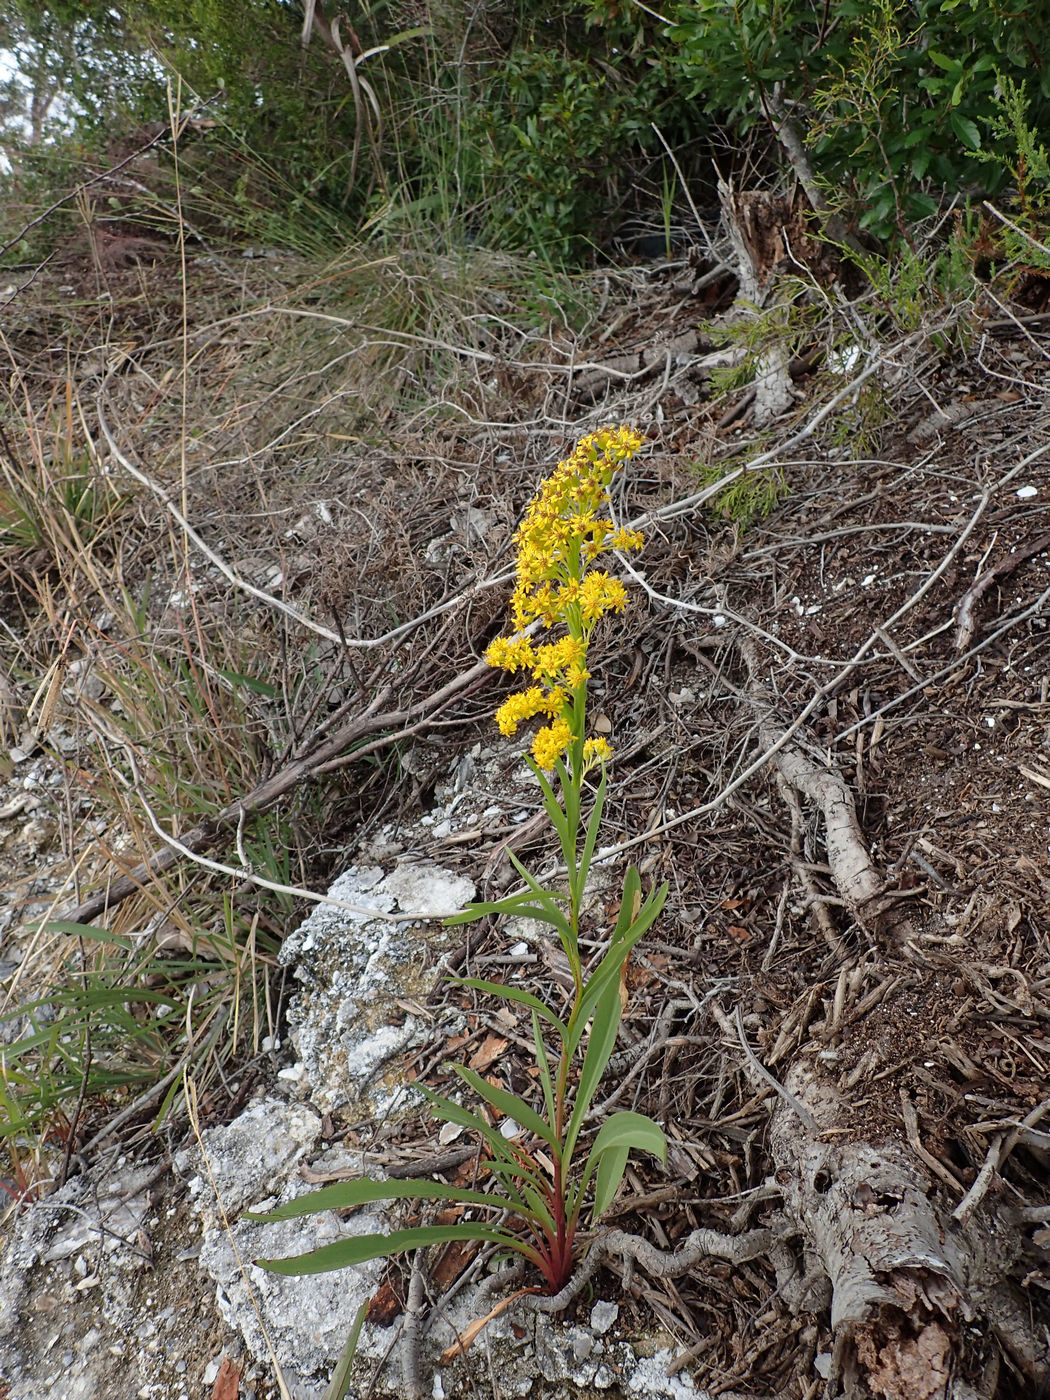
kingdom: Plantae
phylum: Tracheophyta
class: Magnoliopsida
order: Asterales
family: Asteraceae
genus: Solidago
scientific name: Solidago mexicana
